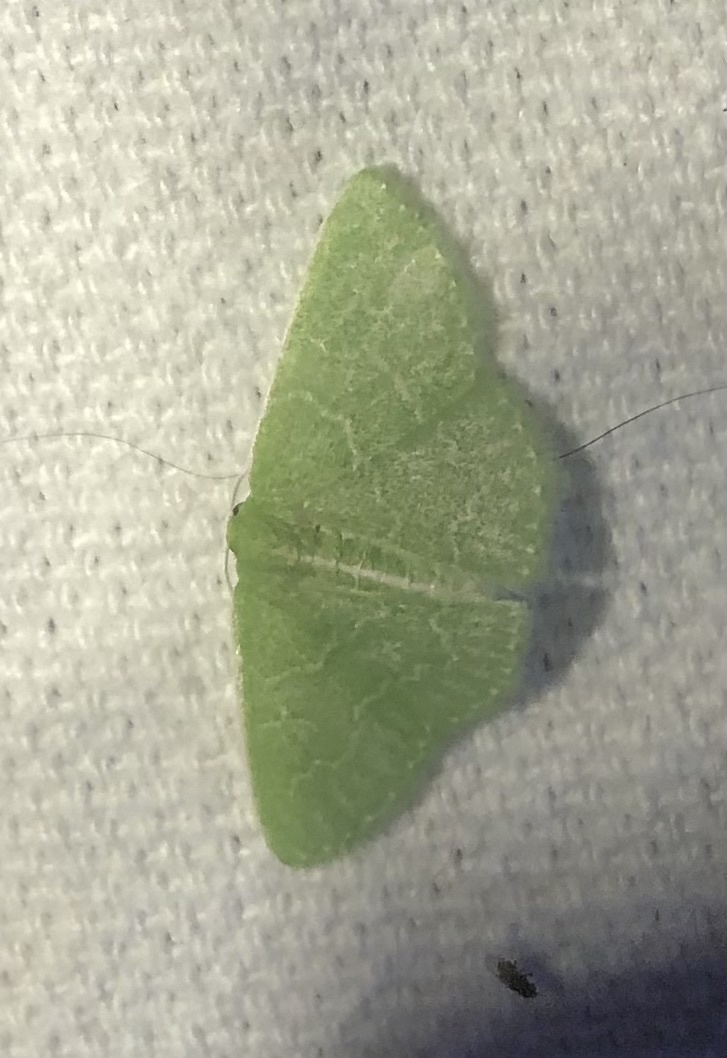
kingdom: Animalia
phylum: Arthropoda
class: Insecta
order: Lepidoptera
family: Geometridae
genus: Synchlora
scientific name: Synchlora frondaria
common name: Southern emerald
